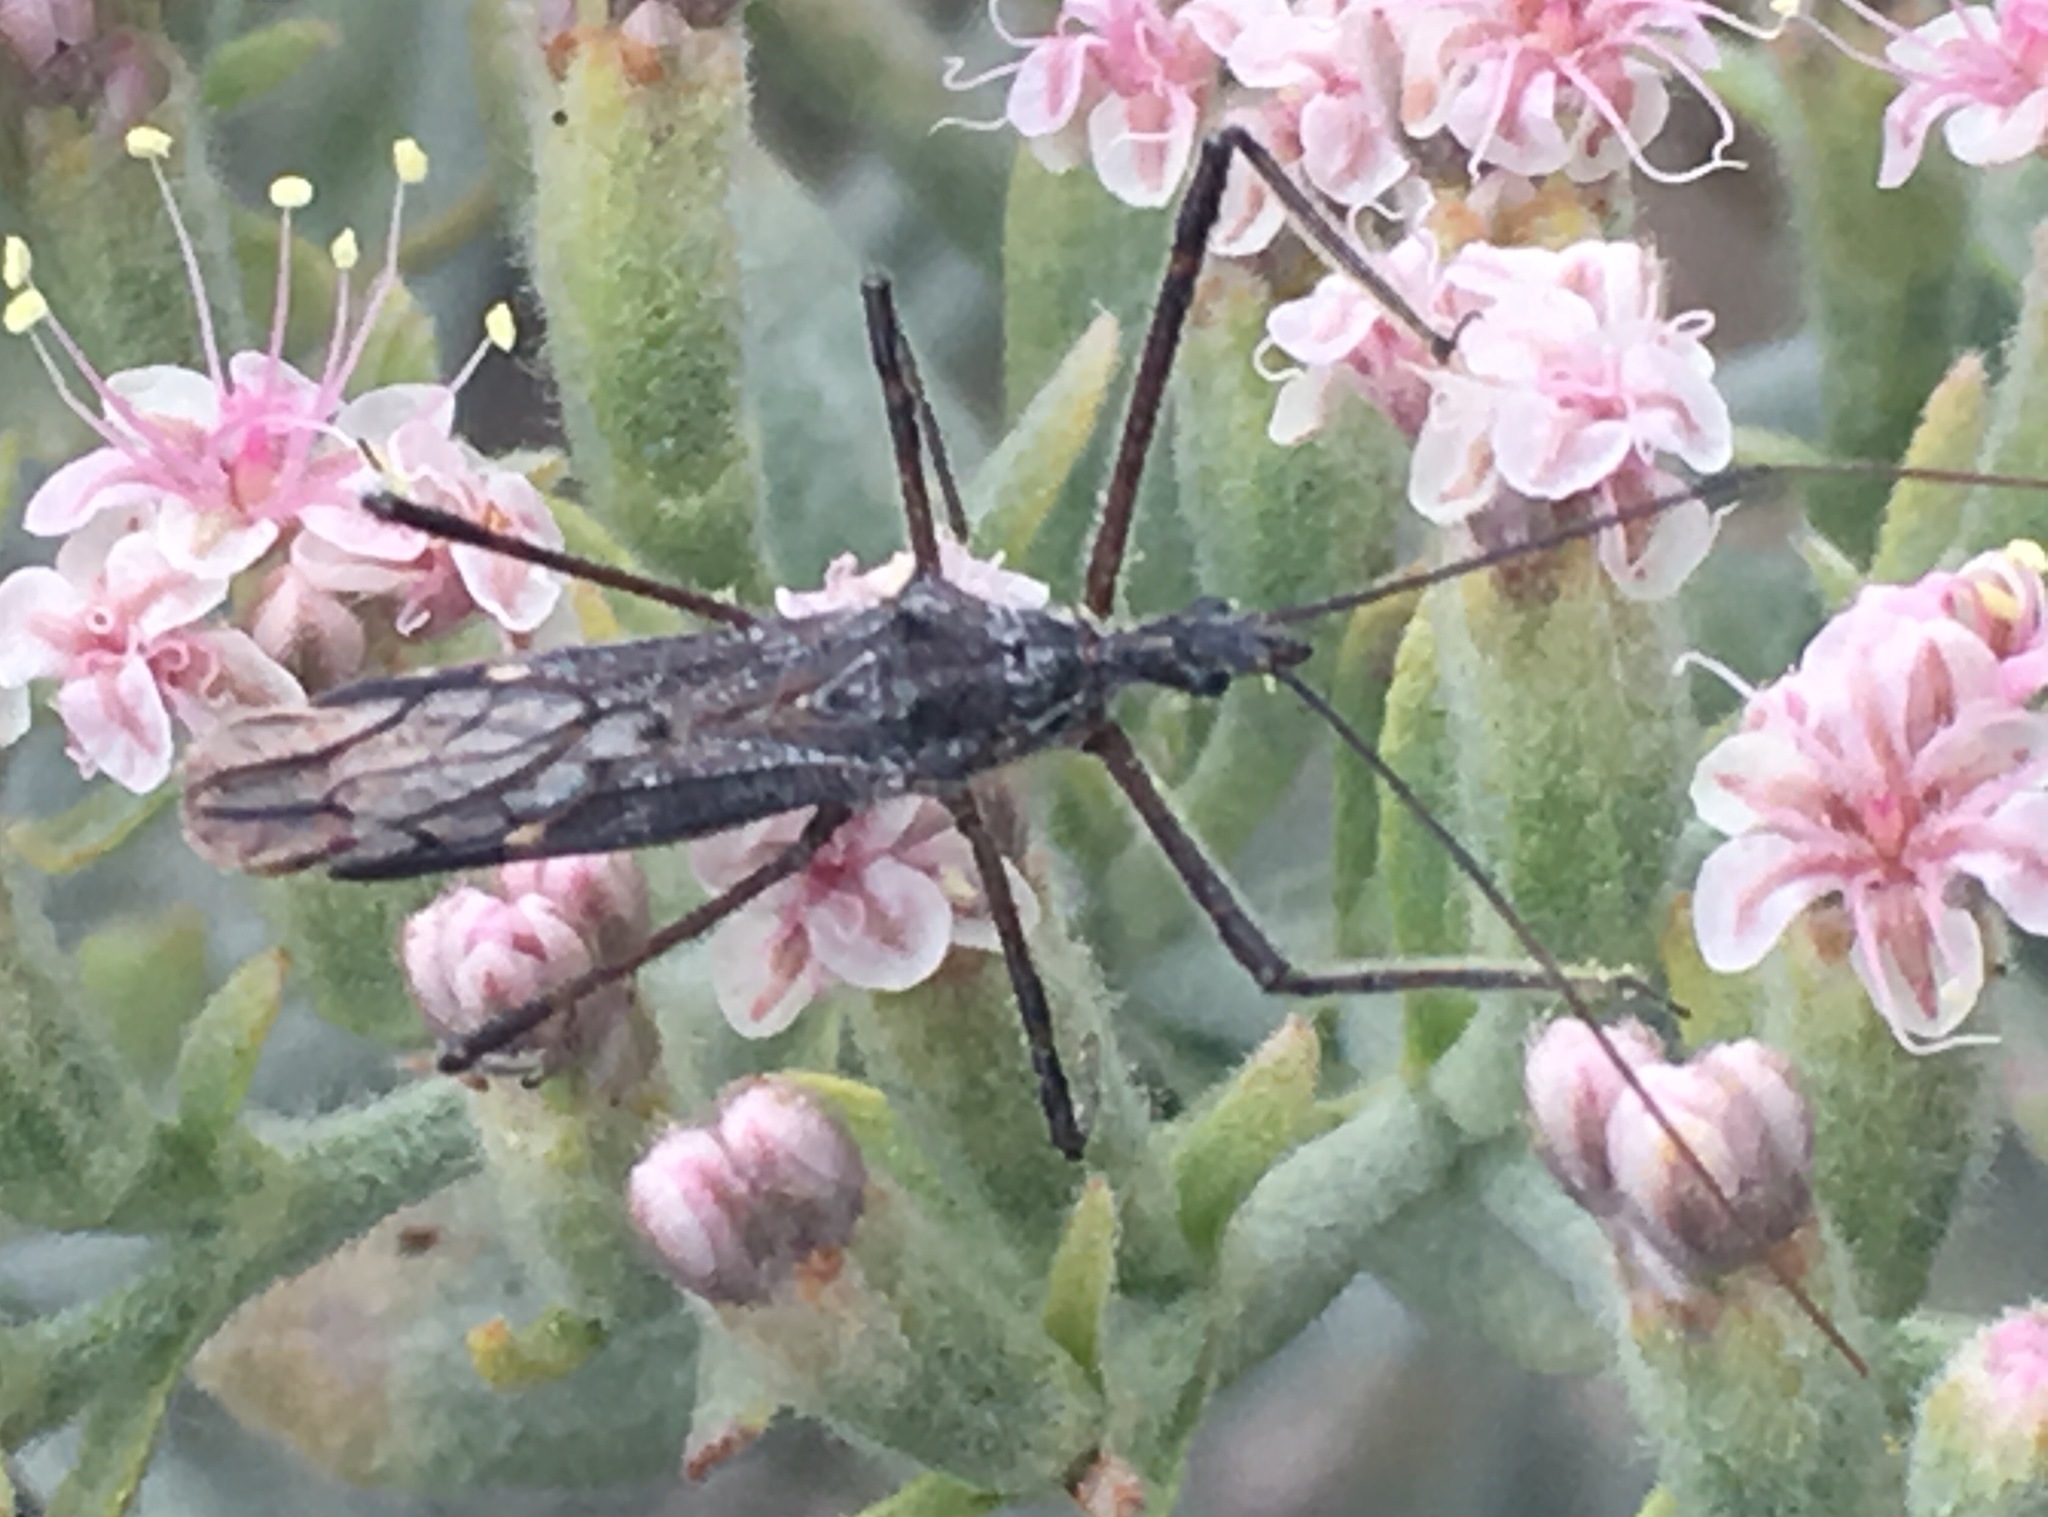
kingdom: Animalia
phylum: Arthropoda
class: Insecta
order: Hemiptera
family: Reduviidae
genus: Zelus
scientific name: Zelus tetracanthus
